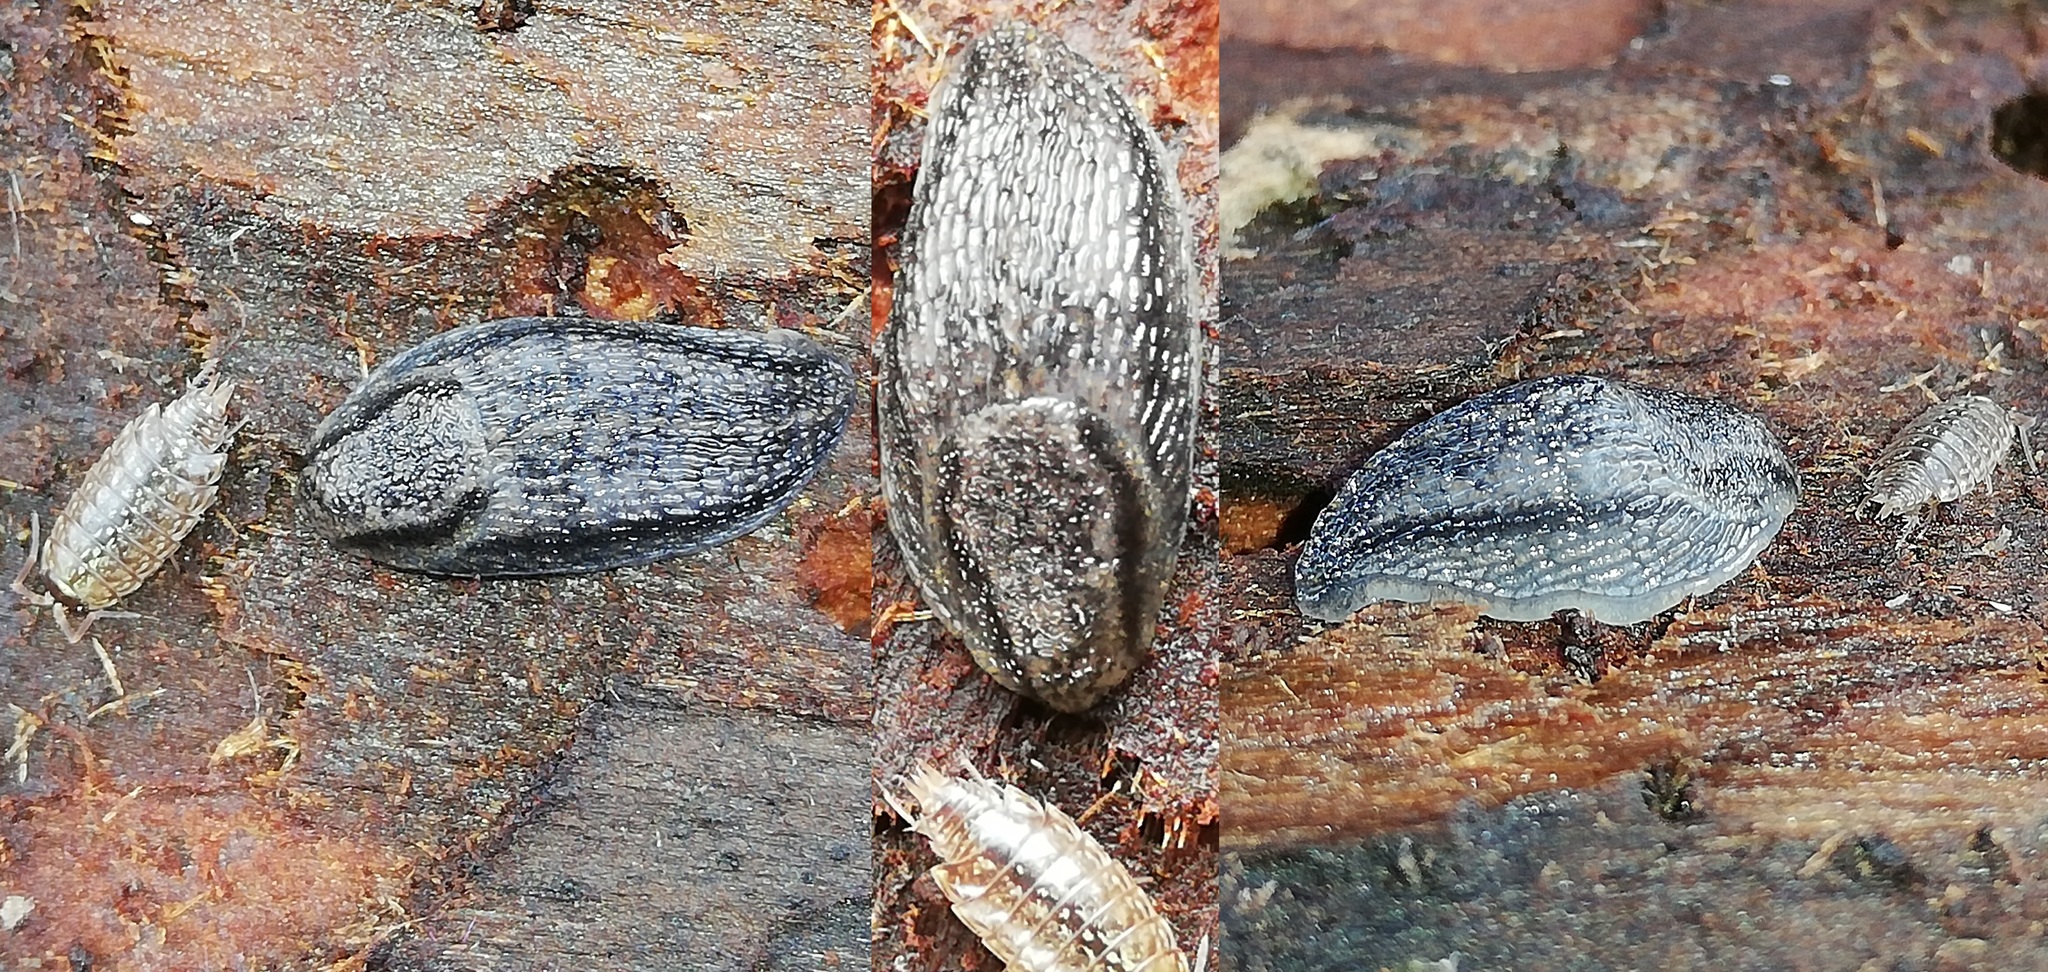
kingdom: Animalia
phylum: Mollusca
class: Gastropoda
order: Stylommatophora
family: Arionidae
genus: Arion
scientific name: Arion fasciatus
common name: Orange-banded arion
